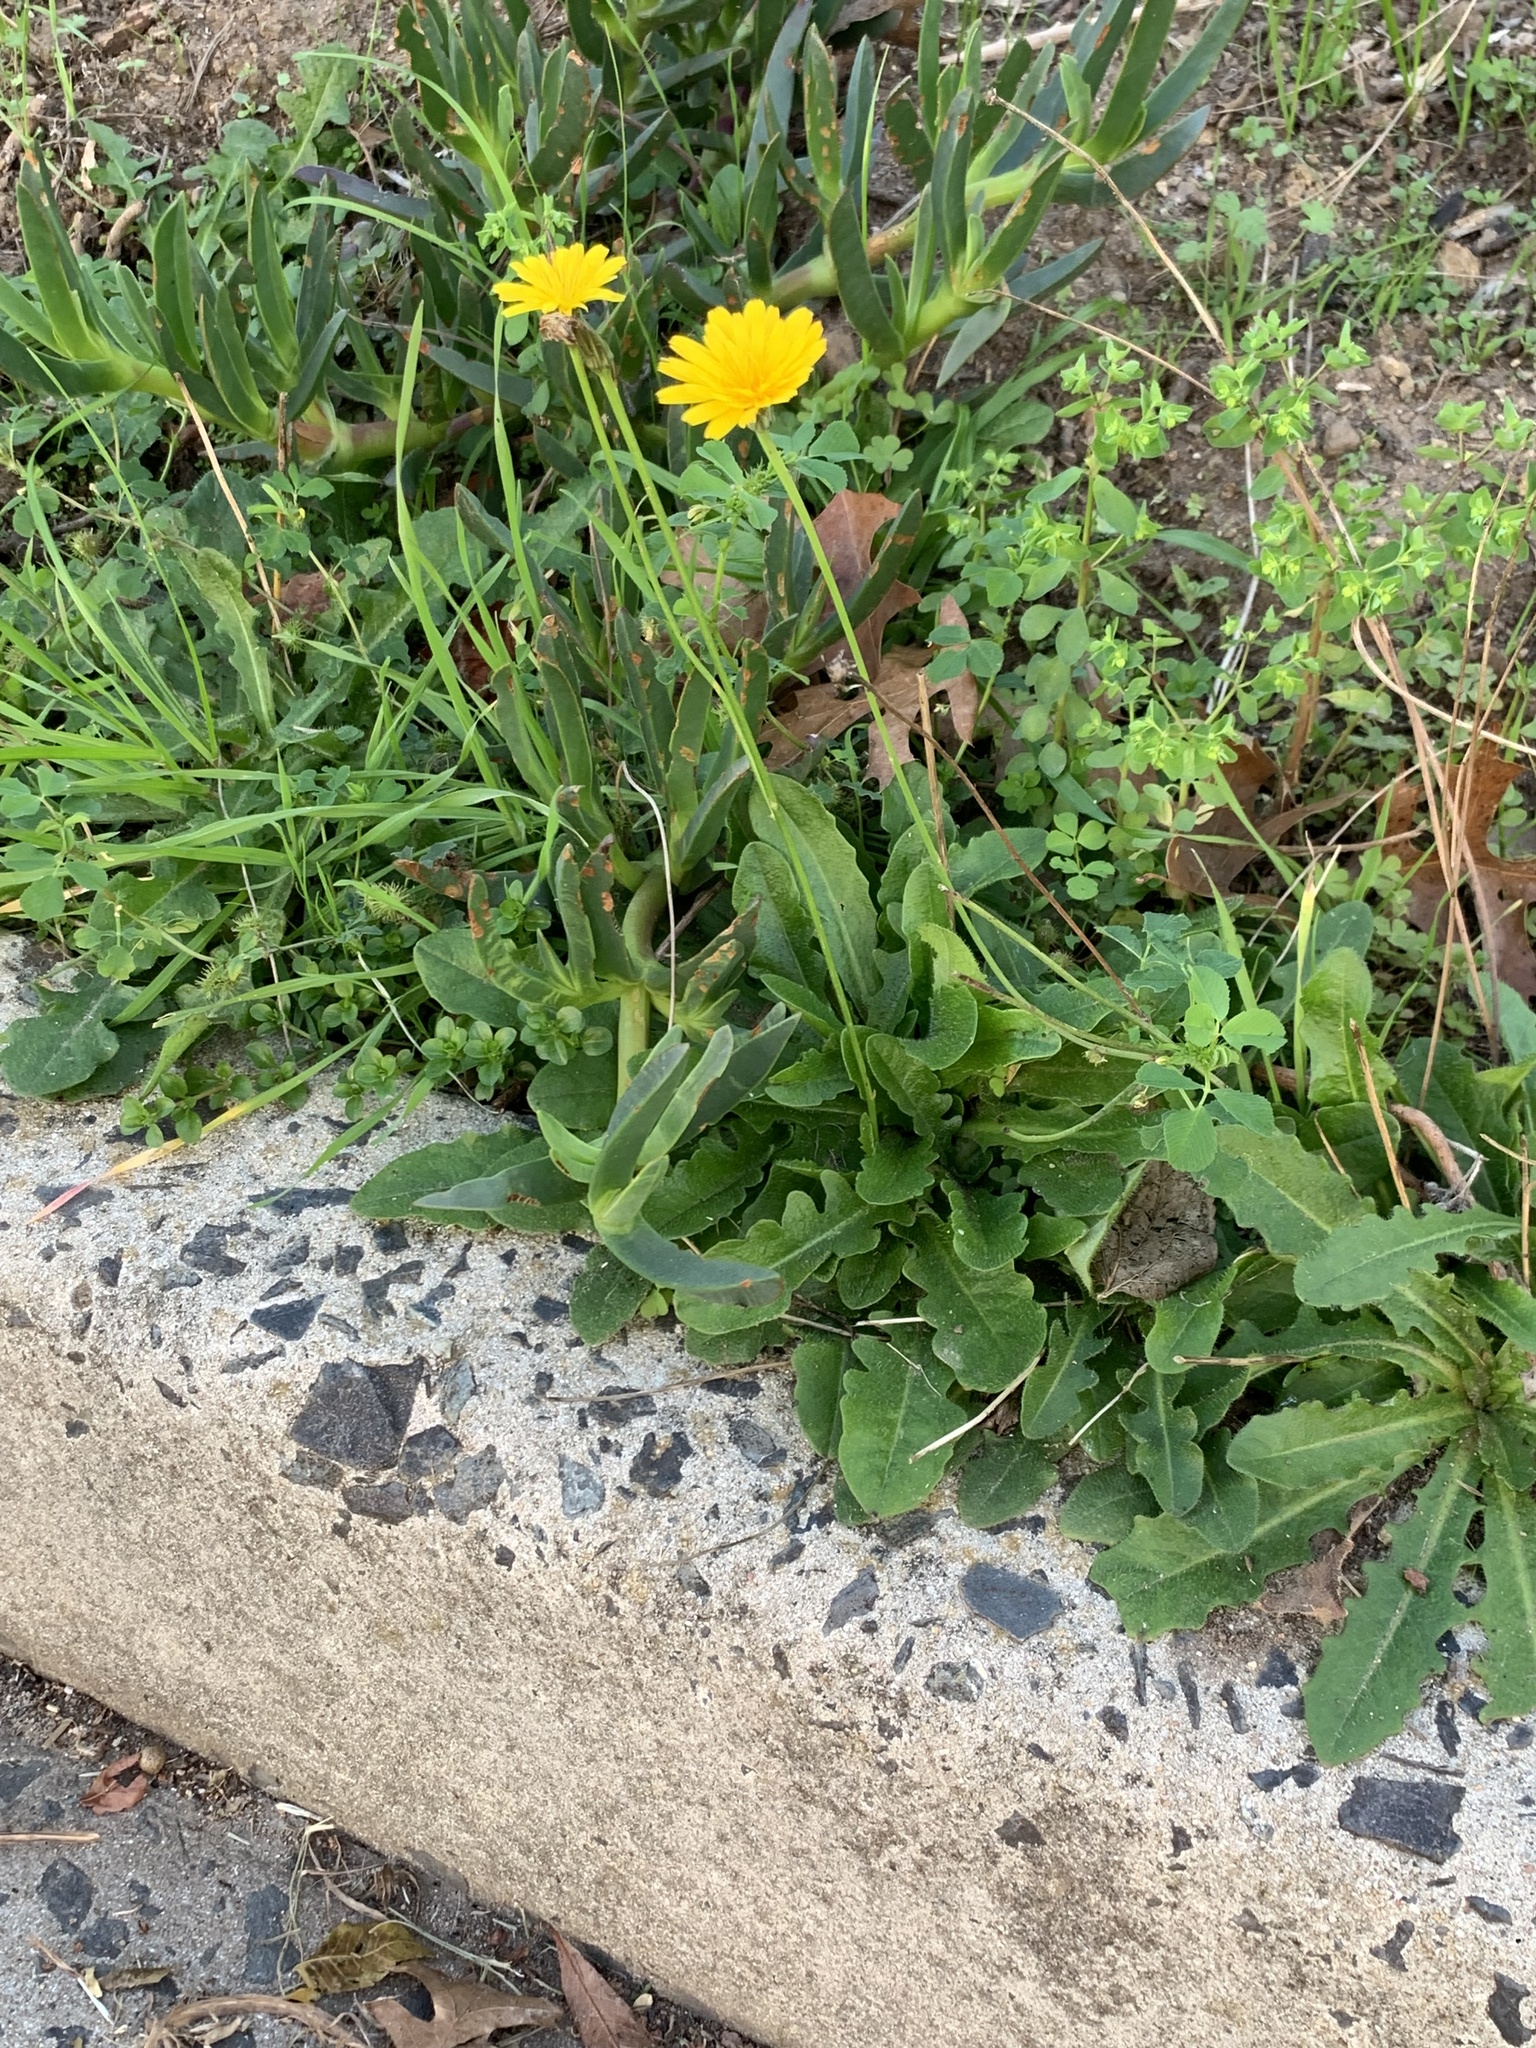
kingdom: Plantae
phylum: Tracheophyta
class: Magnoliopsida
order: Asterales
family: Asteraceae
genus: Hypochaeris
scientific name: Hypochaeris radicata
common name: Flatweed
